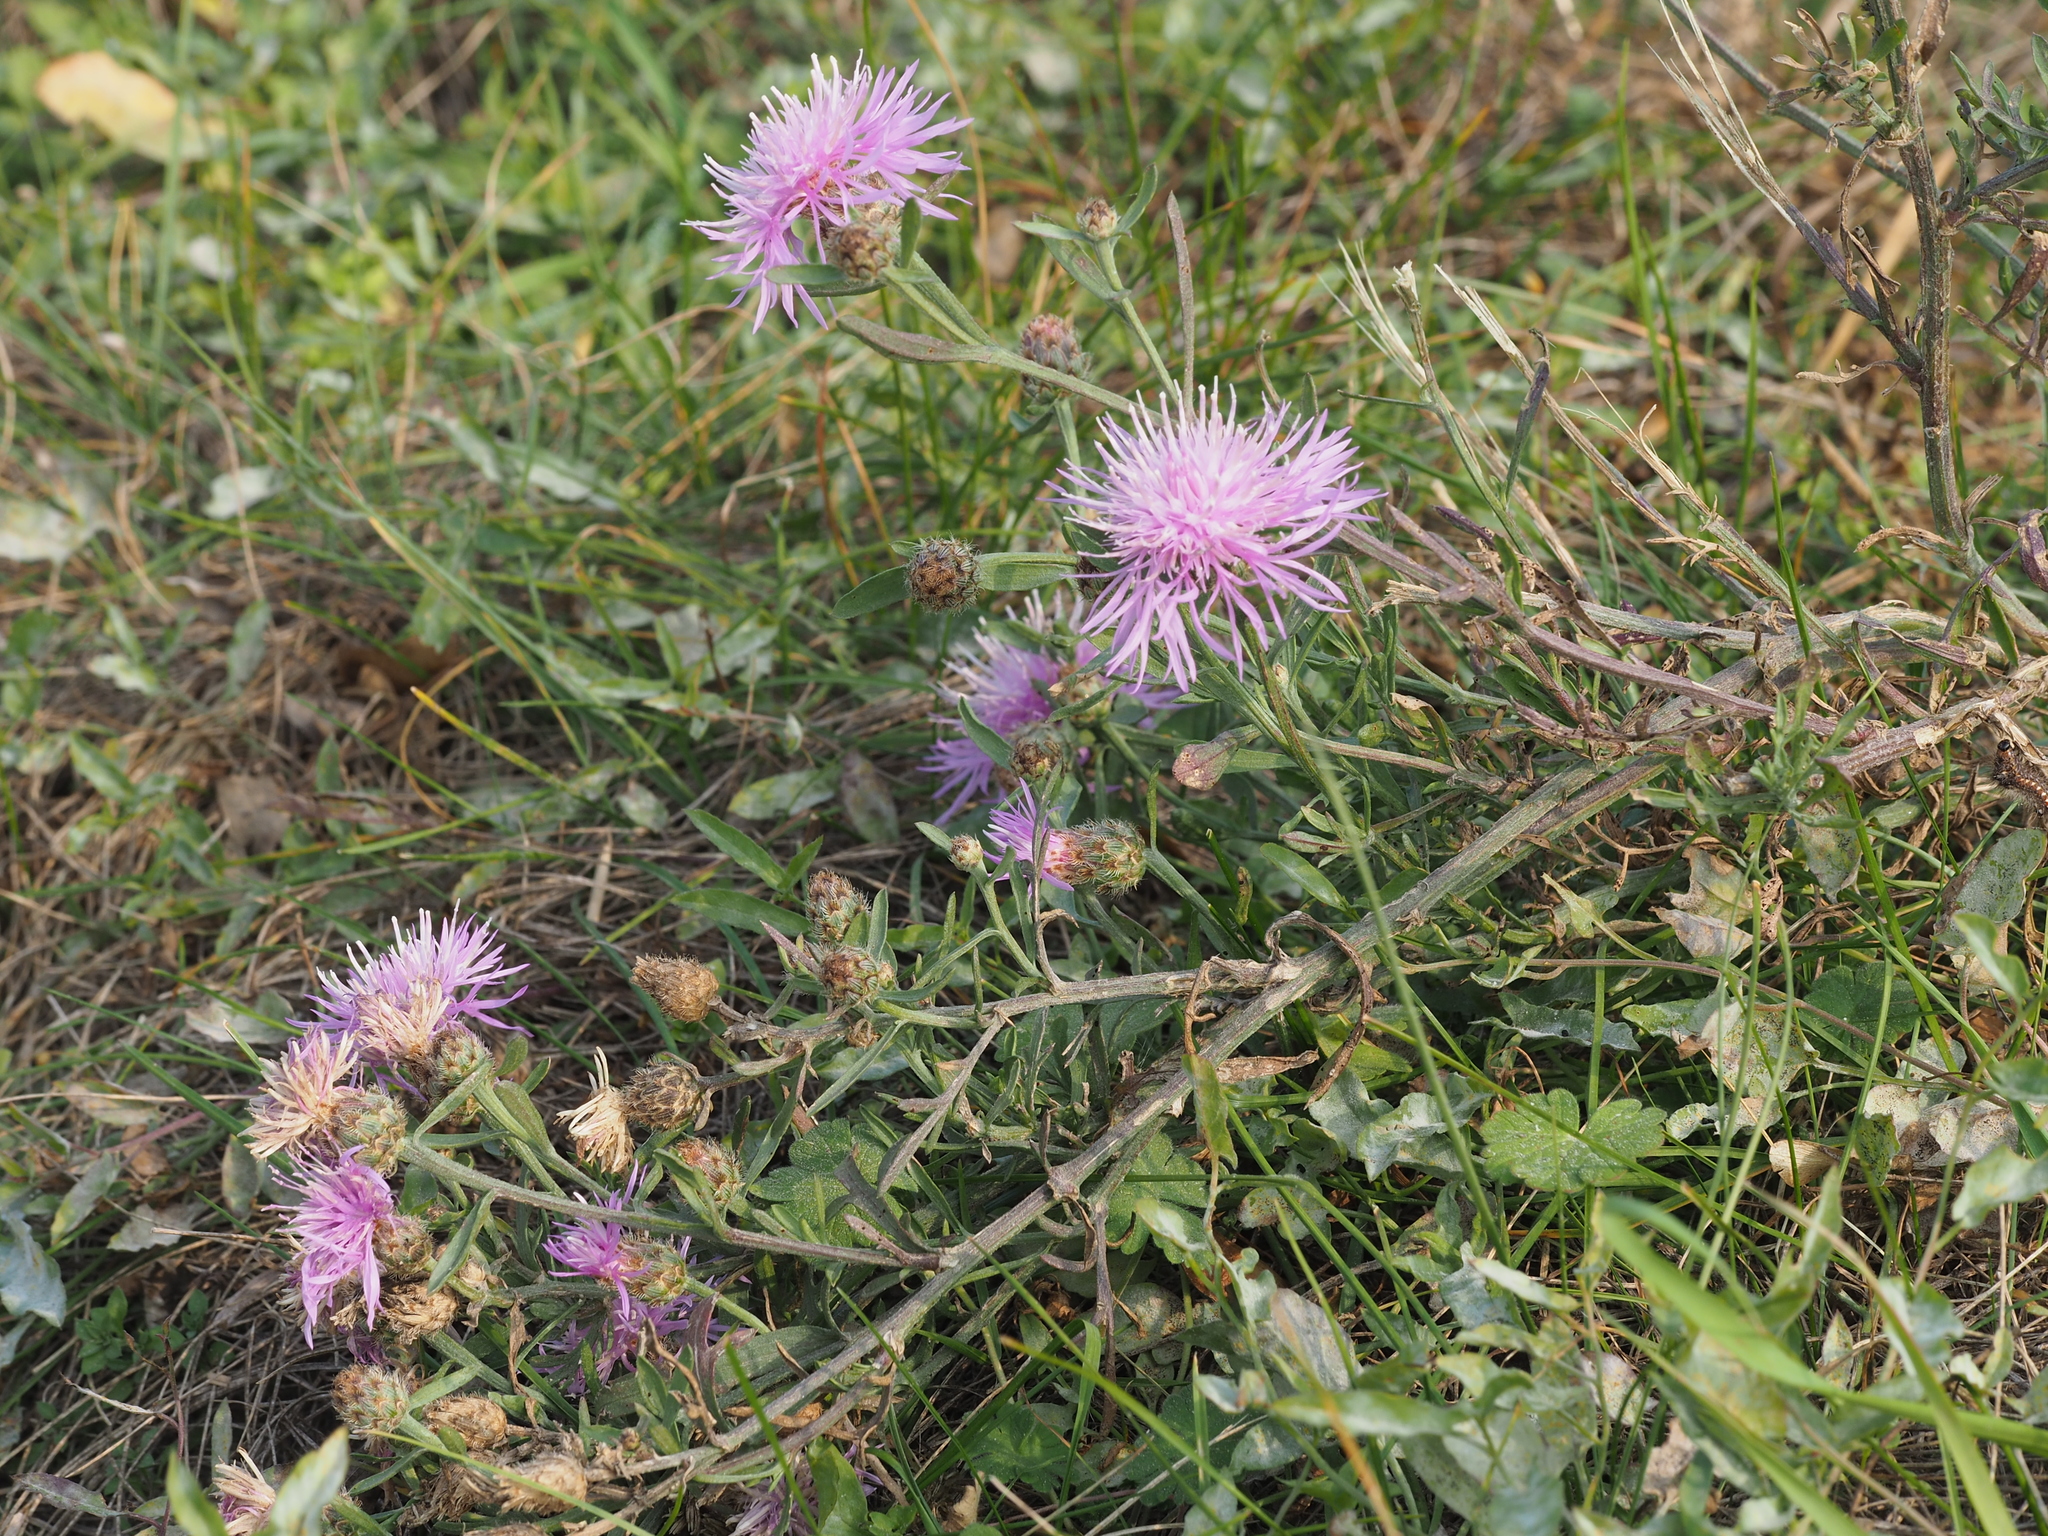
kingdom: Plantae
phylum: Tracheophyta
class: Magnoliopsida
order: Asterales
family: Asteraceae
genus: Centaurea
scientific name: Centaurea stoebe
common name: Spotted knapweed
